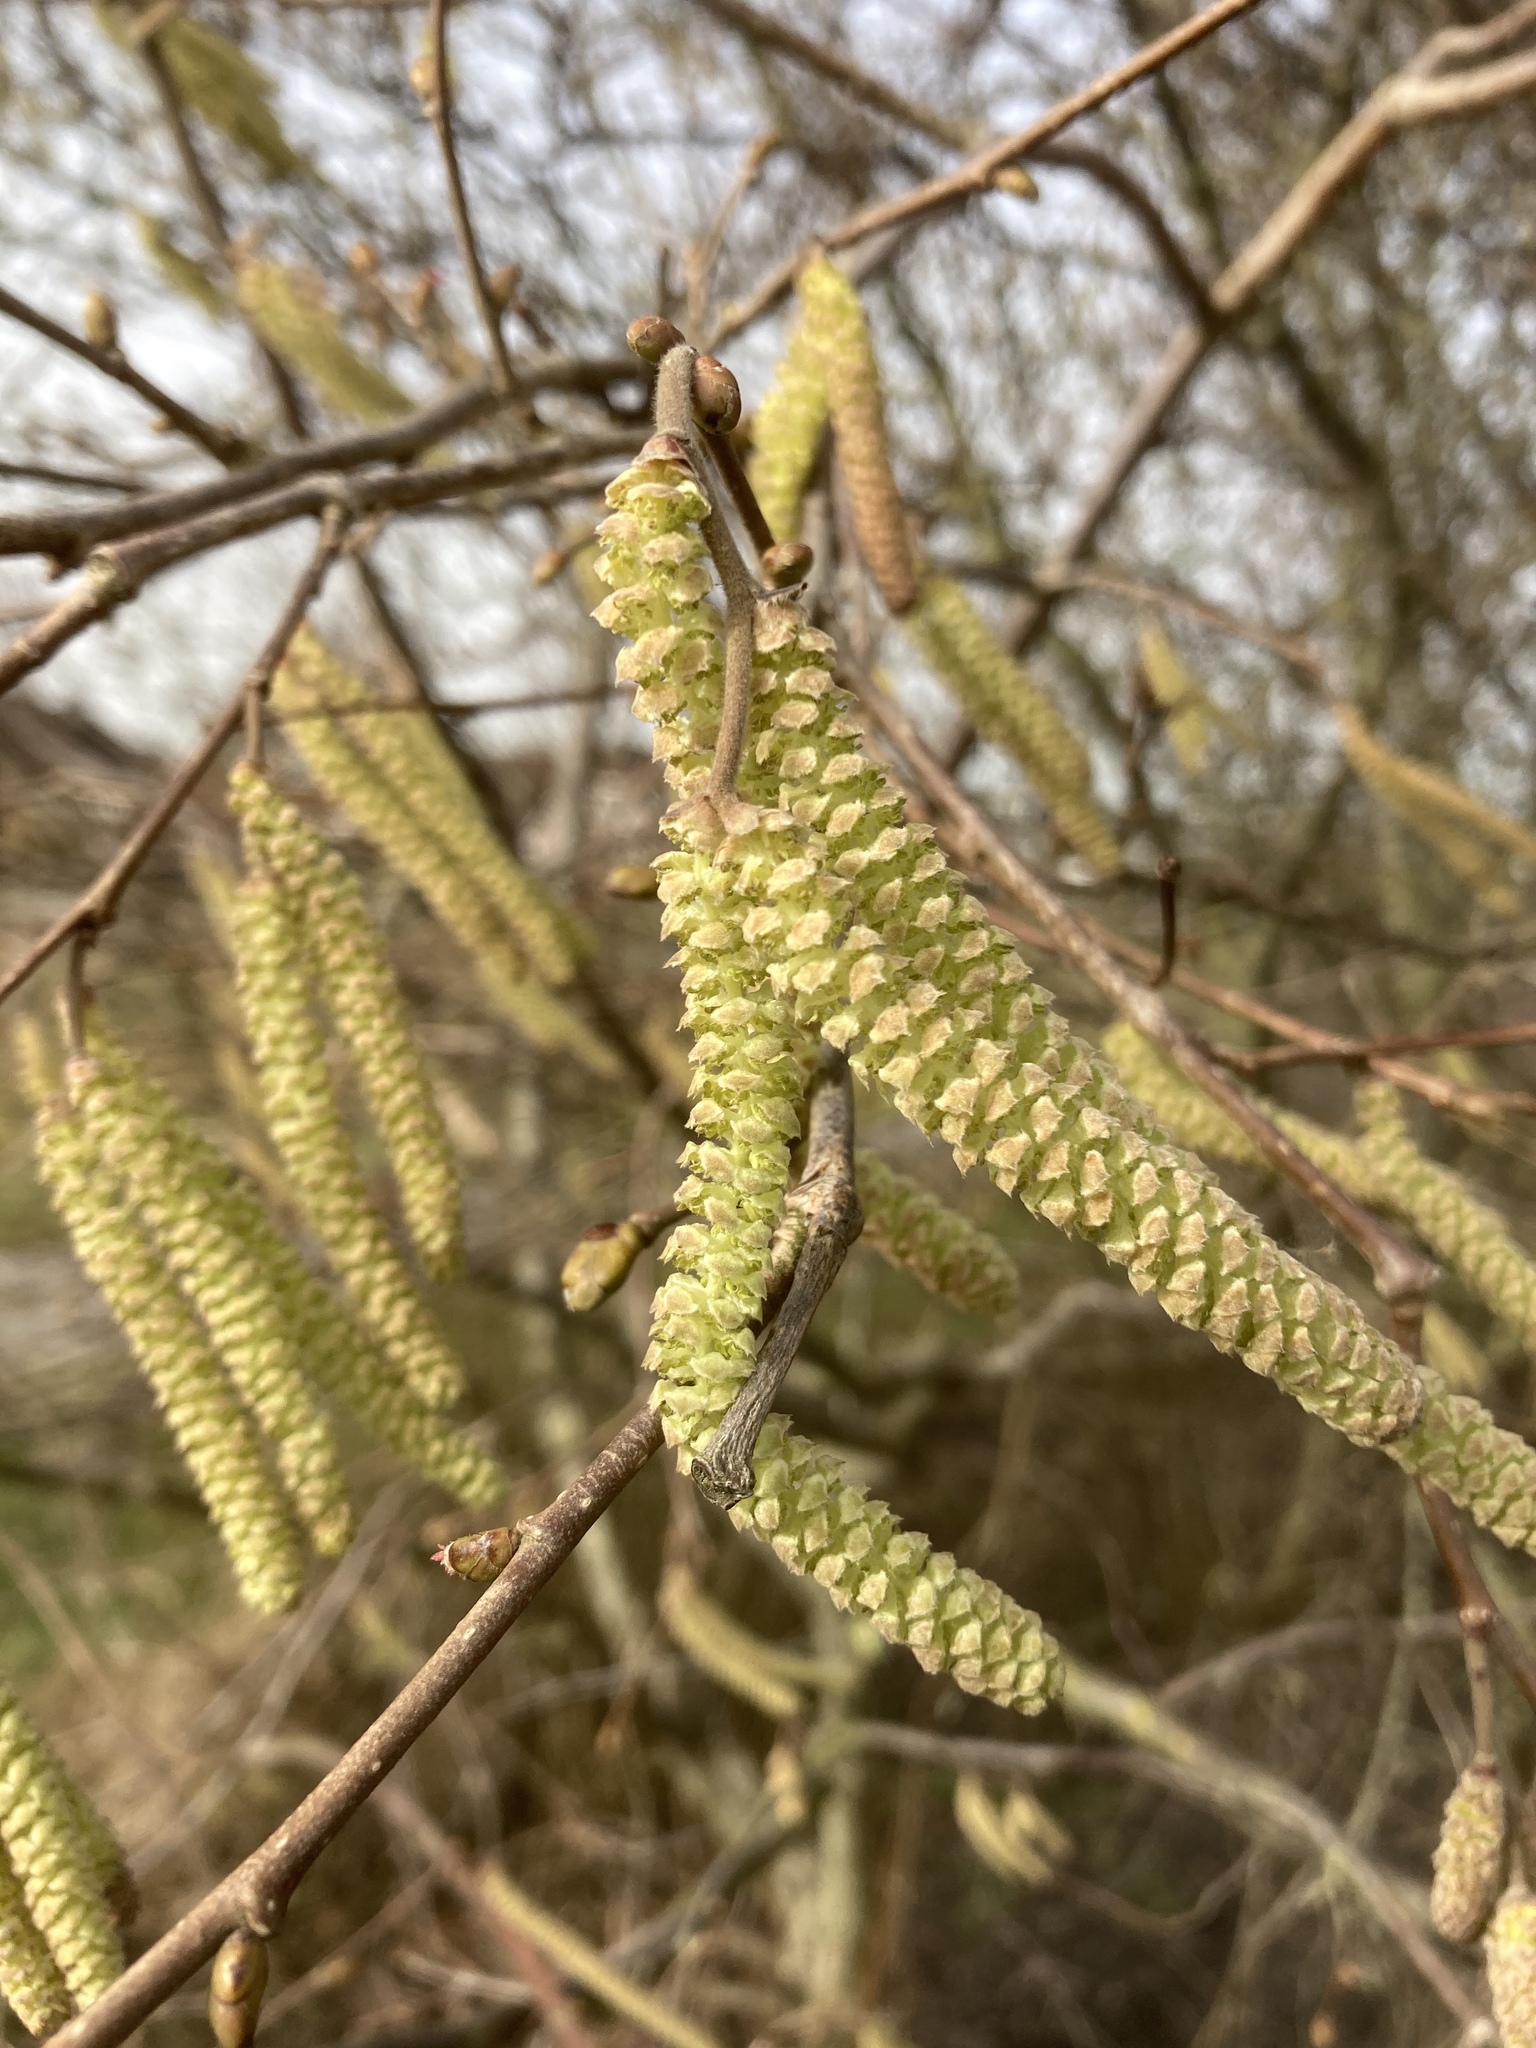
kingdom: Plantae
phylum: Tracheophyta
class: Magnoliopsida
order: Fagales
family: Betulaceae
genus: Corylus
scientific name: Corylus avellana
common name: European hazel
